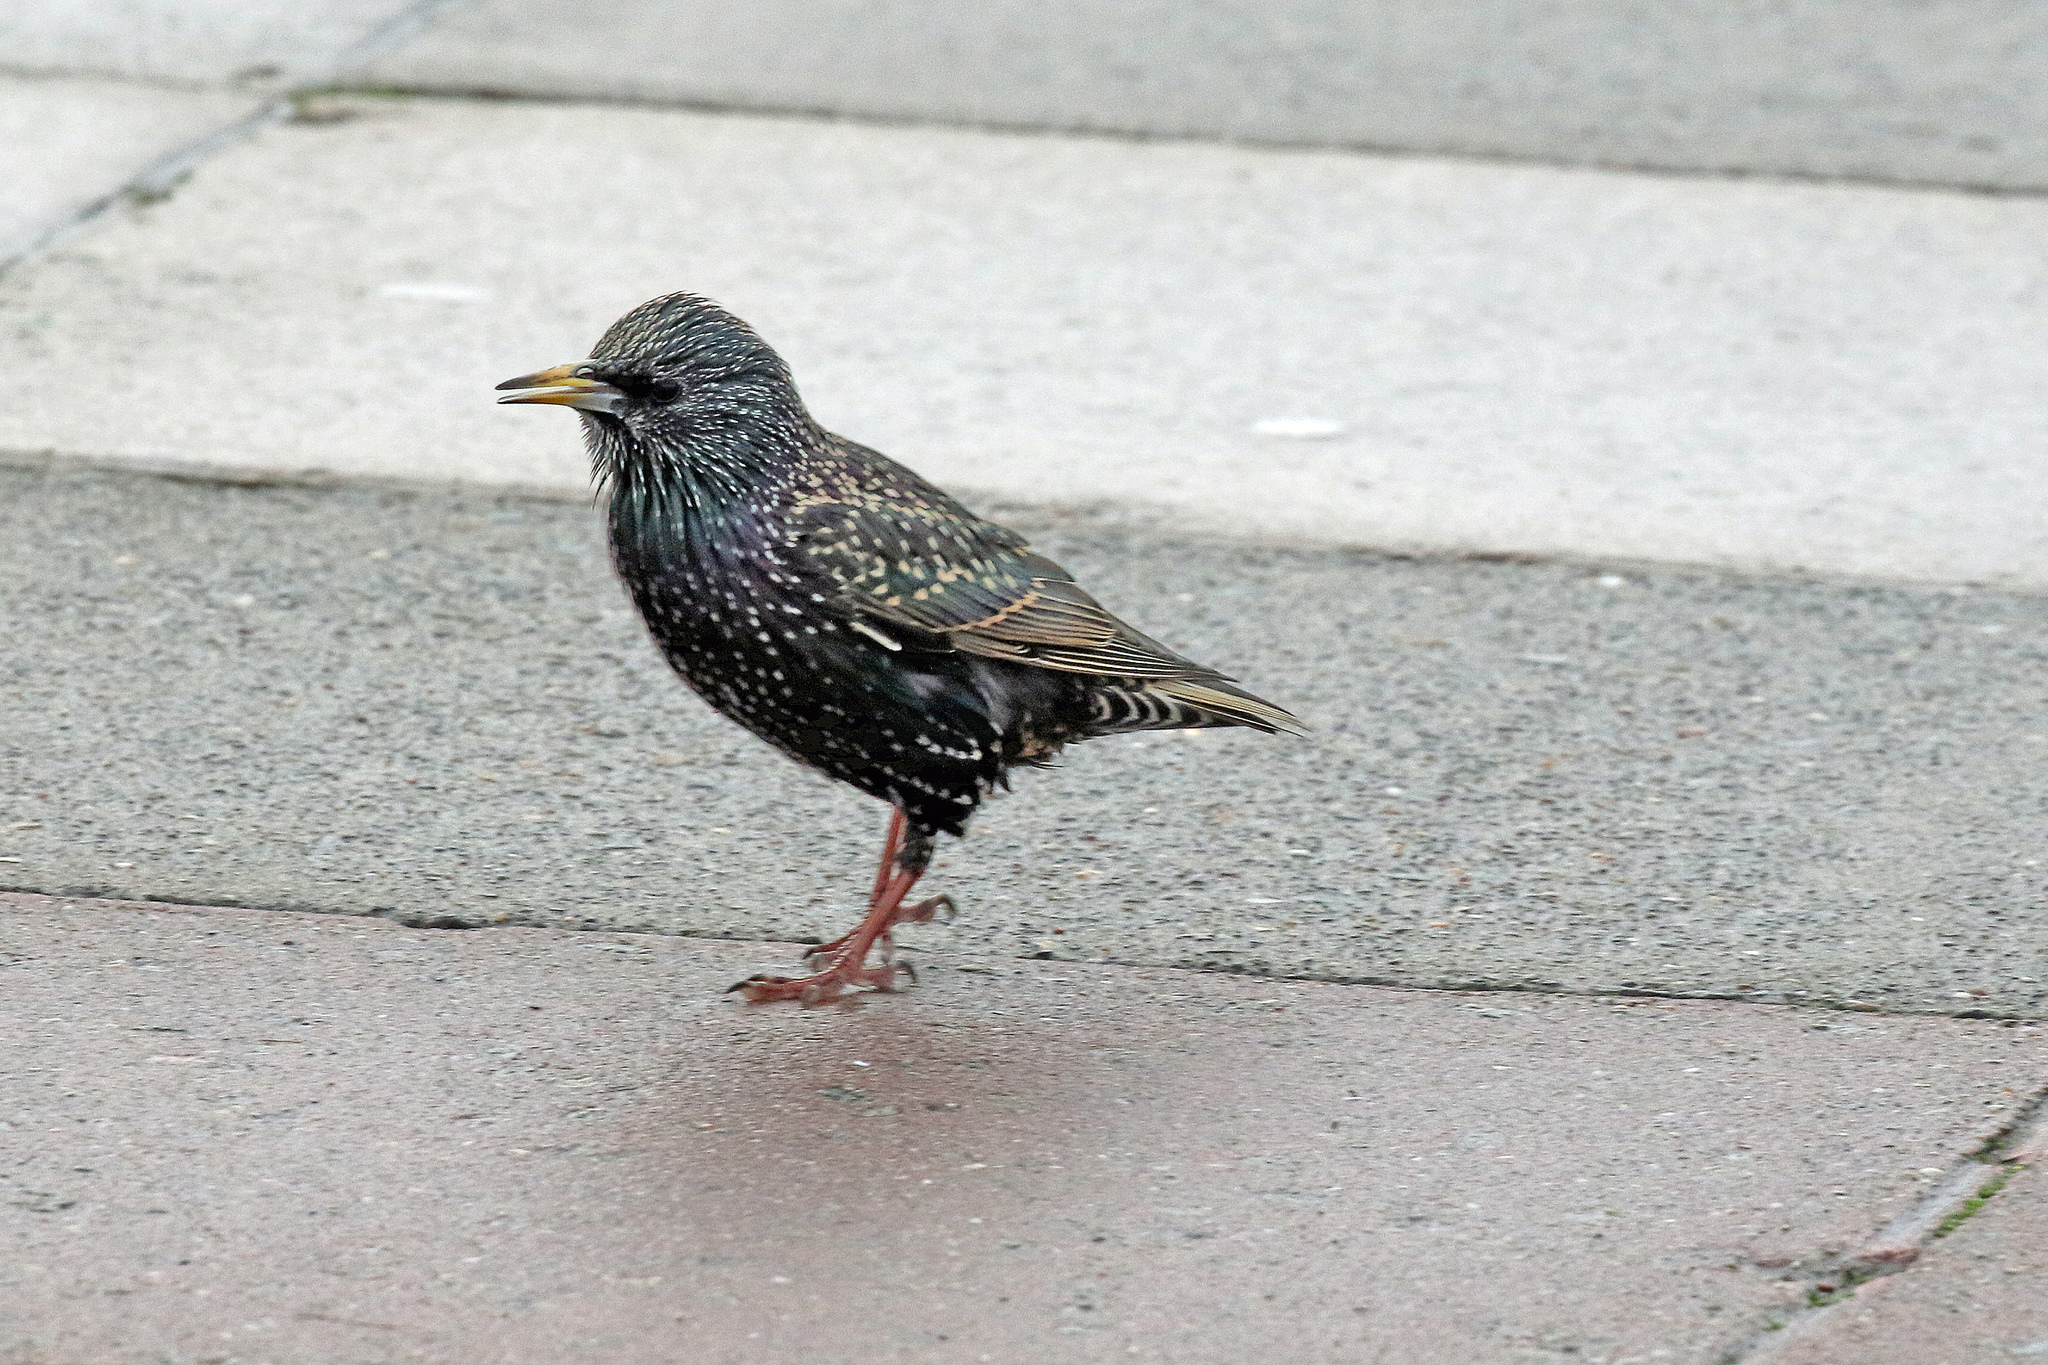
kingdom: Animalia
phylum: Chordata
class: Aves
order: Passeriformes
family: Sturnidae
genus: Sturnus
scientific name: Sturnus vulgaris
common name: Common starling
